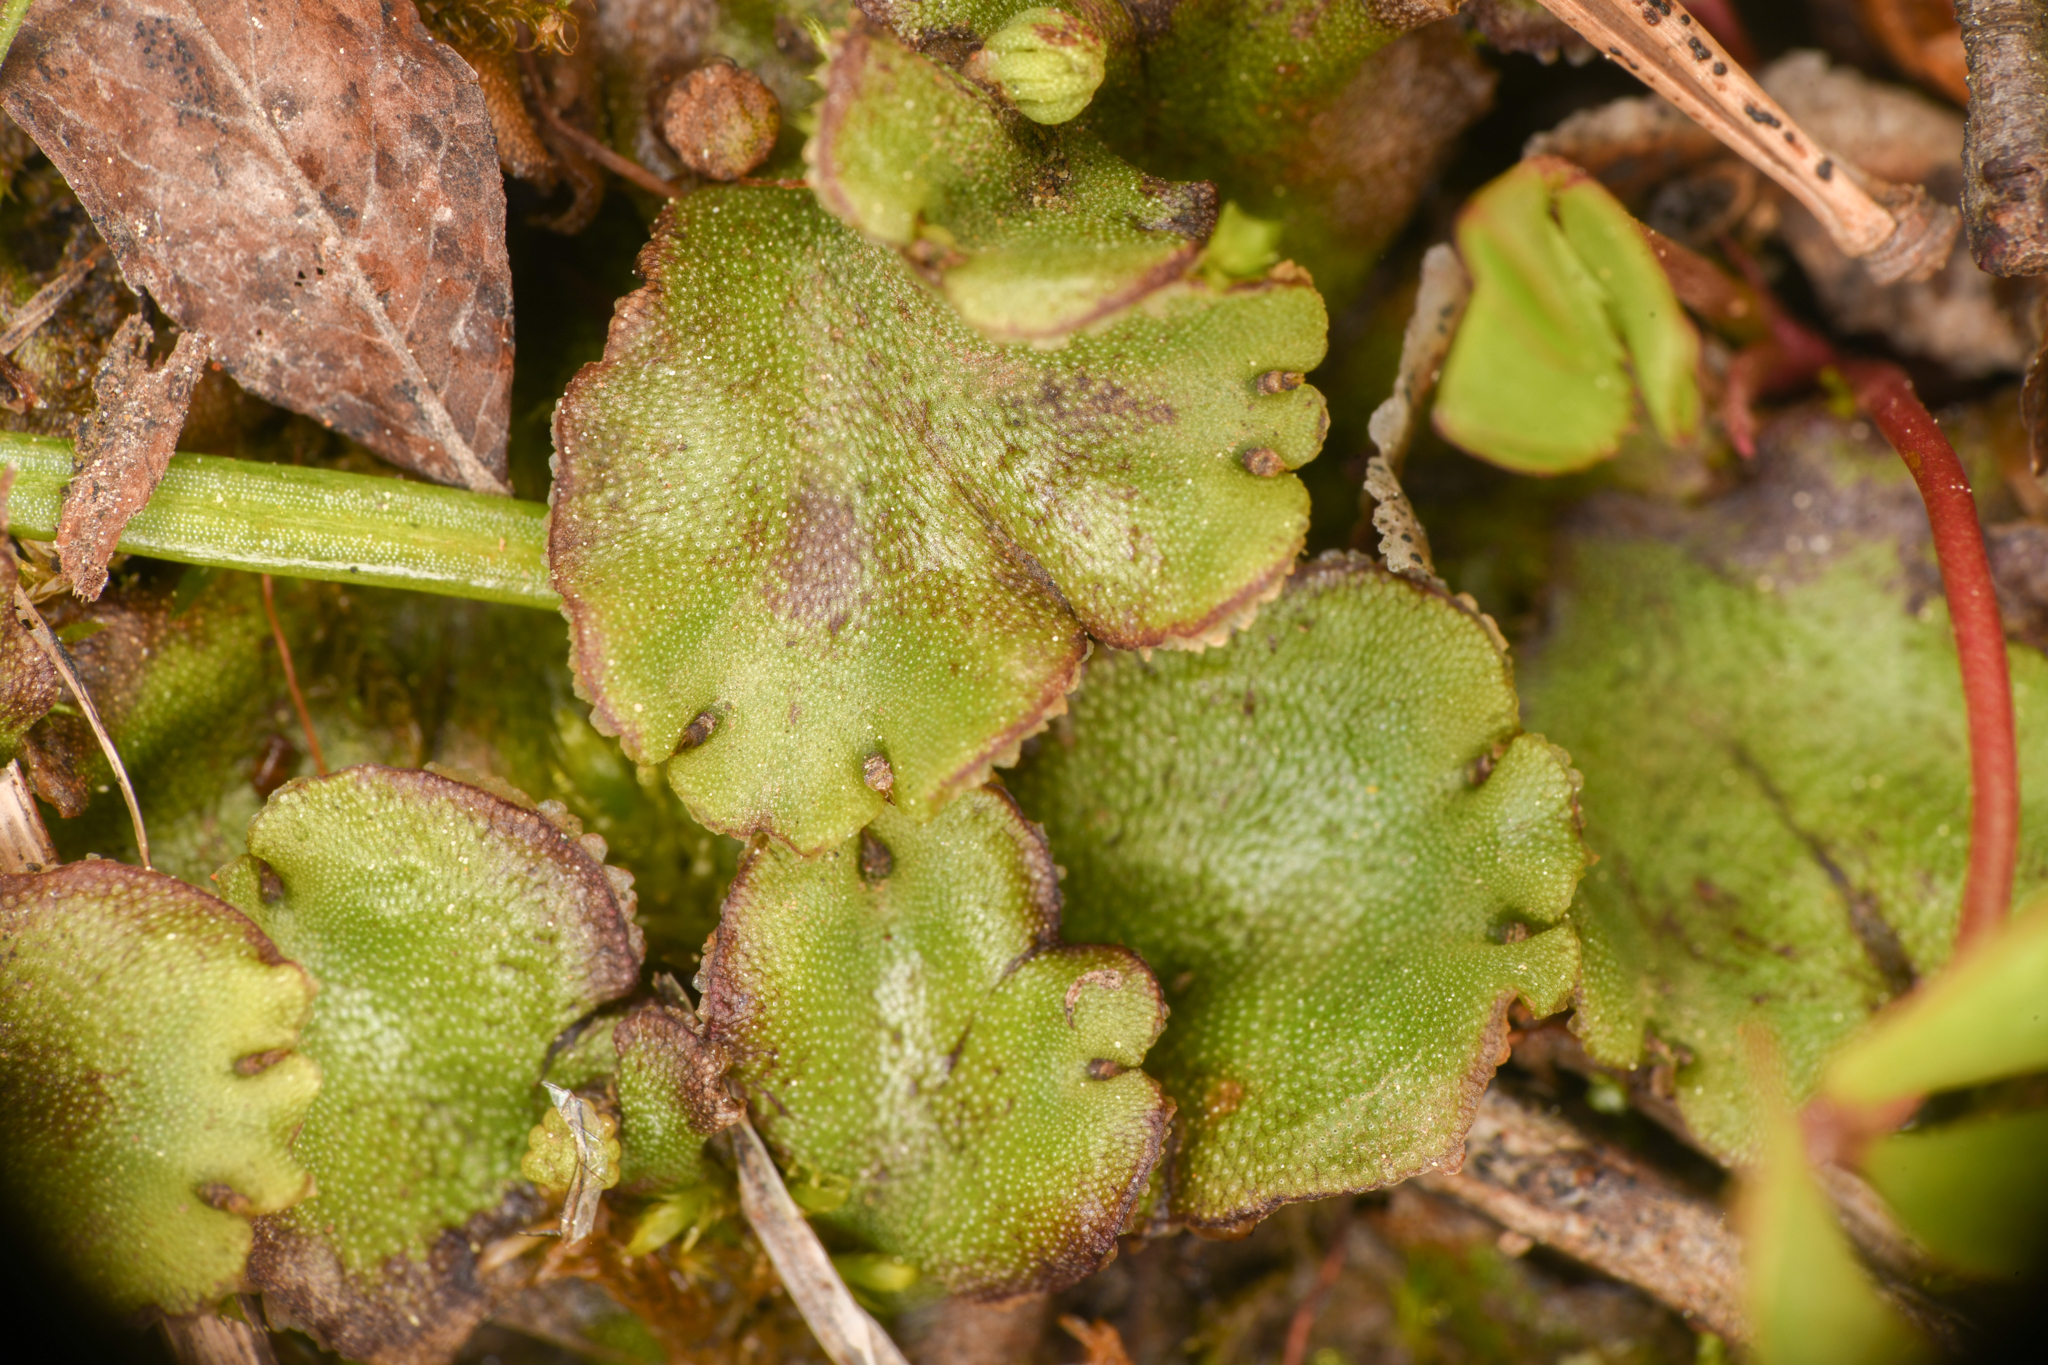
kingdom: Plantae
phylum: Marchantiophyta
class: Marchantiopsida
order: Marchantiales
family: Marchantiaceae
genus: Marchantia
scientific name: Marchantia polymorpha
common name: Common liverwort
